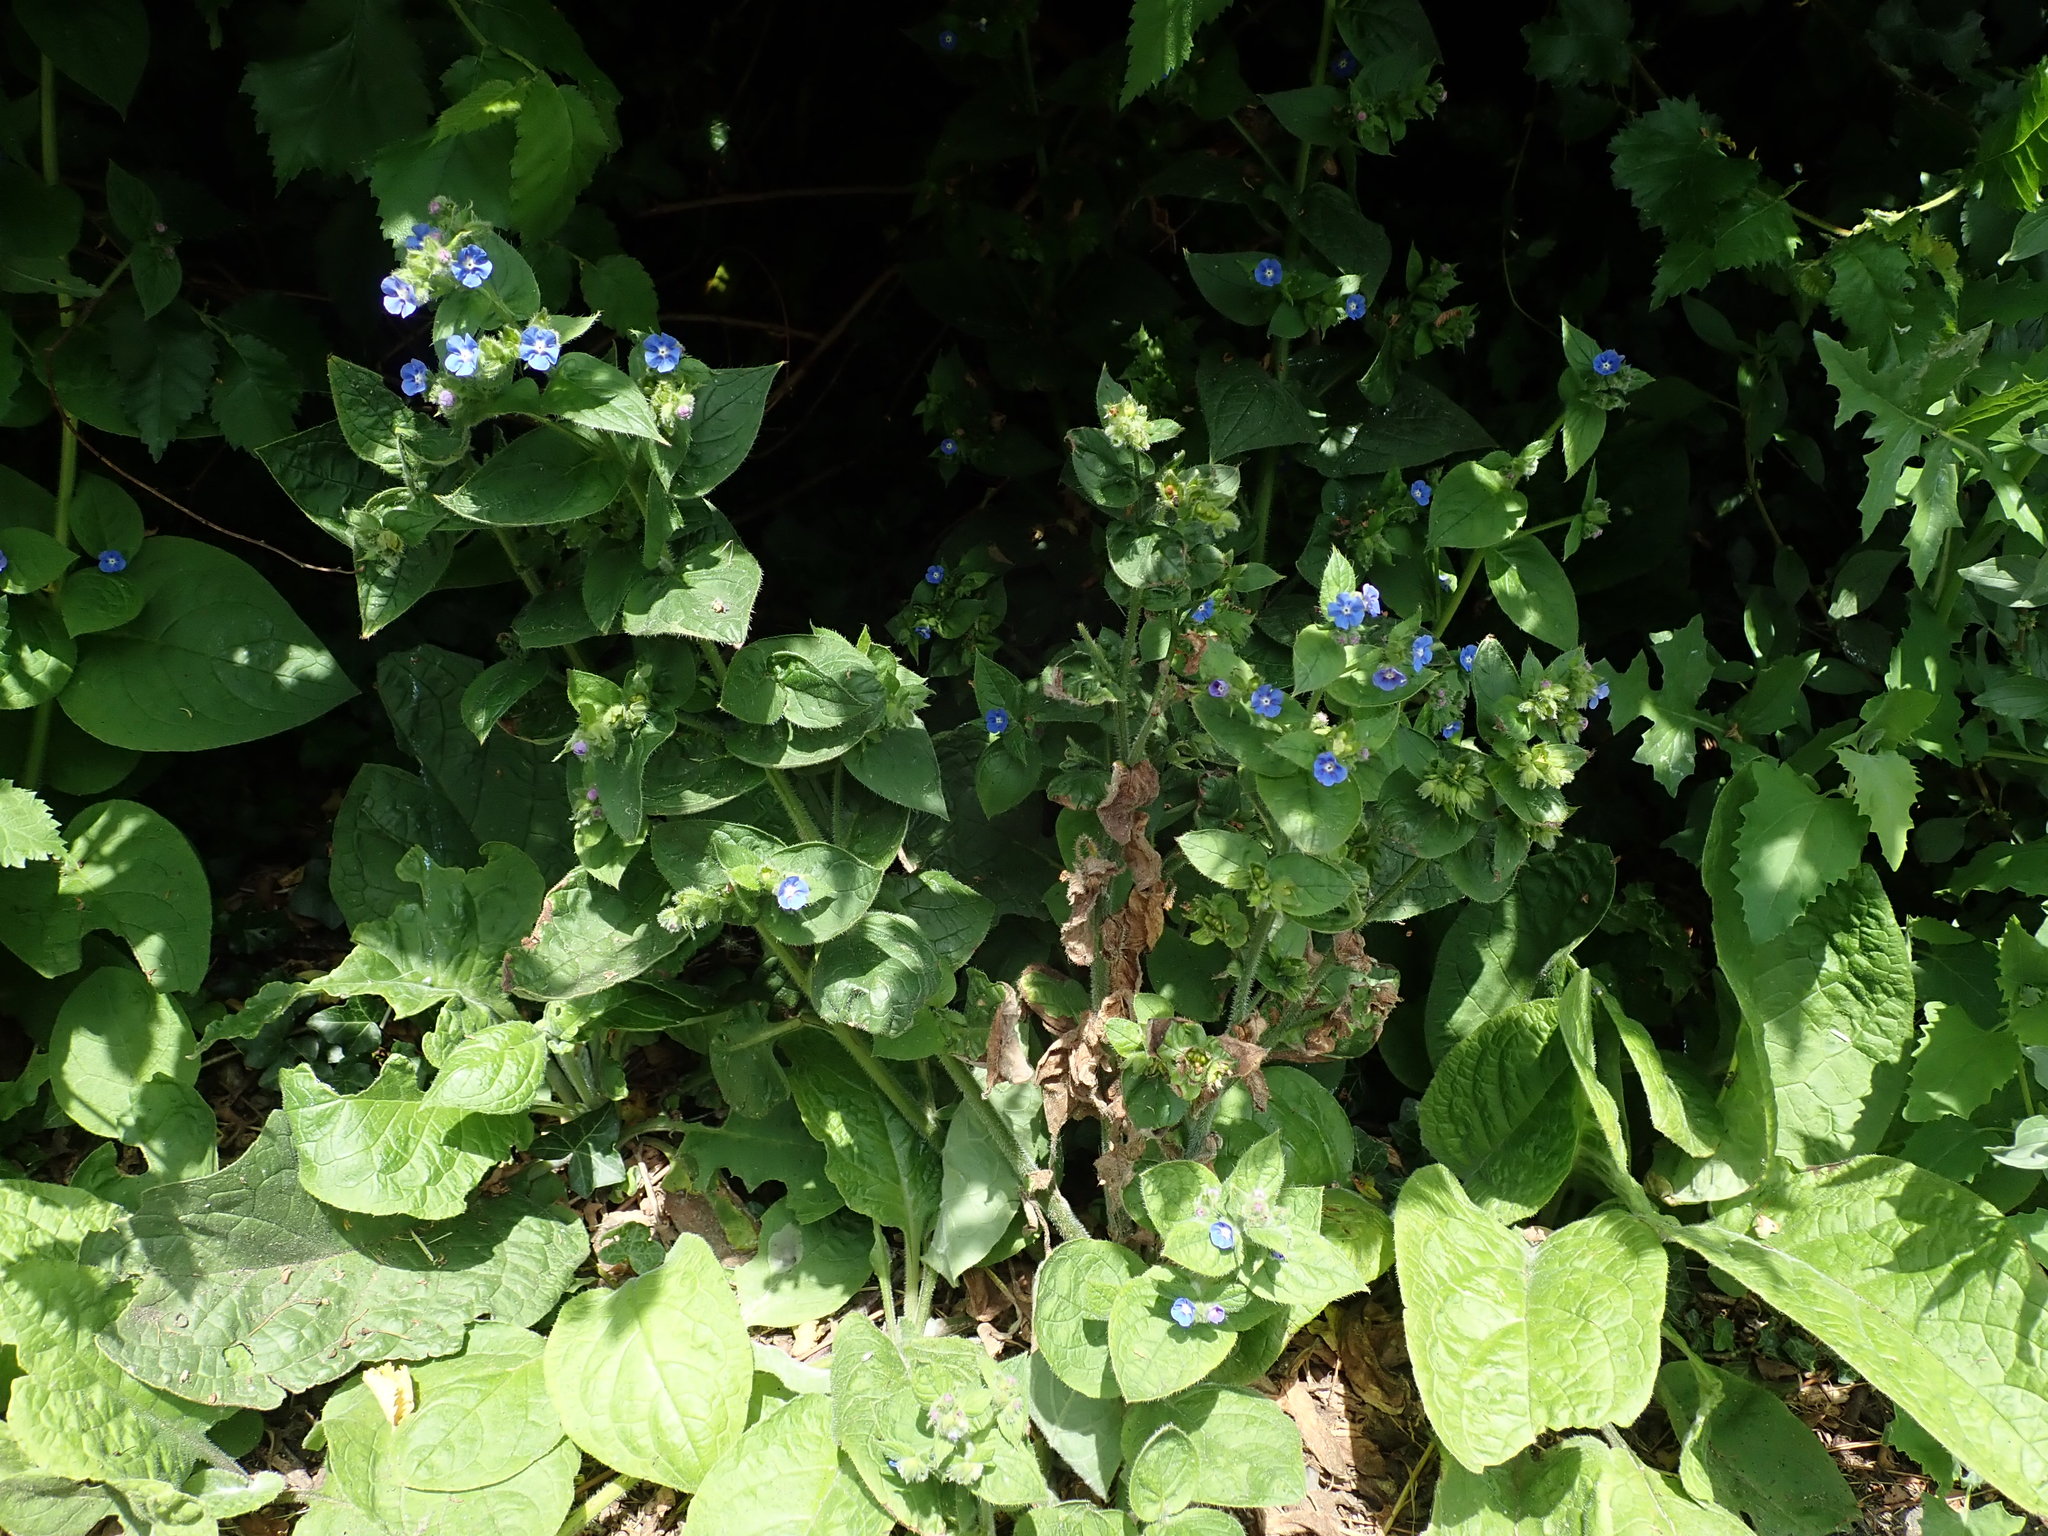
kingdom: Plantae
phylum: Tracheophyta
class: Magnoliopsida
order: Boraginales
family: Boraginaceae
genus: Pentaglottis
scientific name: Pentaglottis sempervirens
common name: Green alkanet
